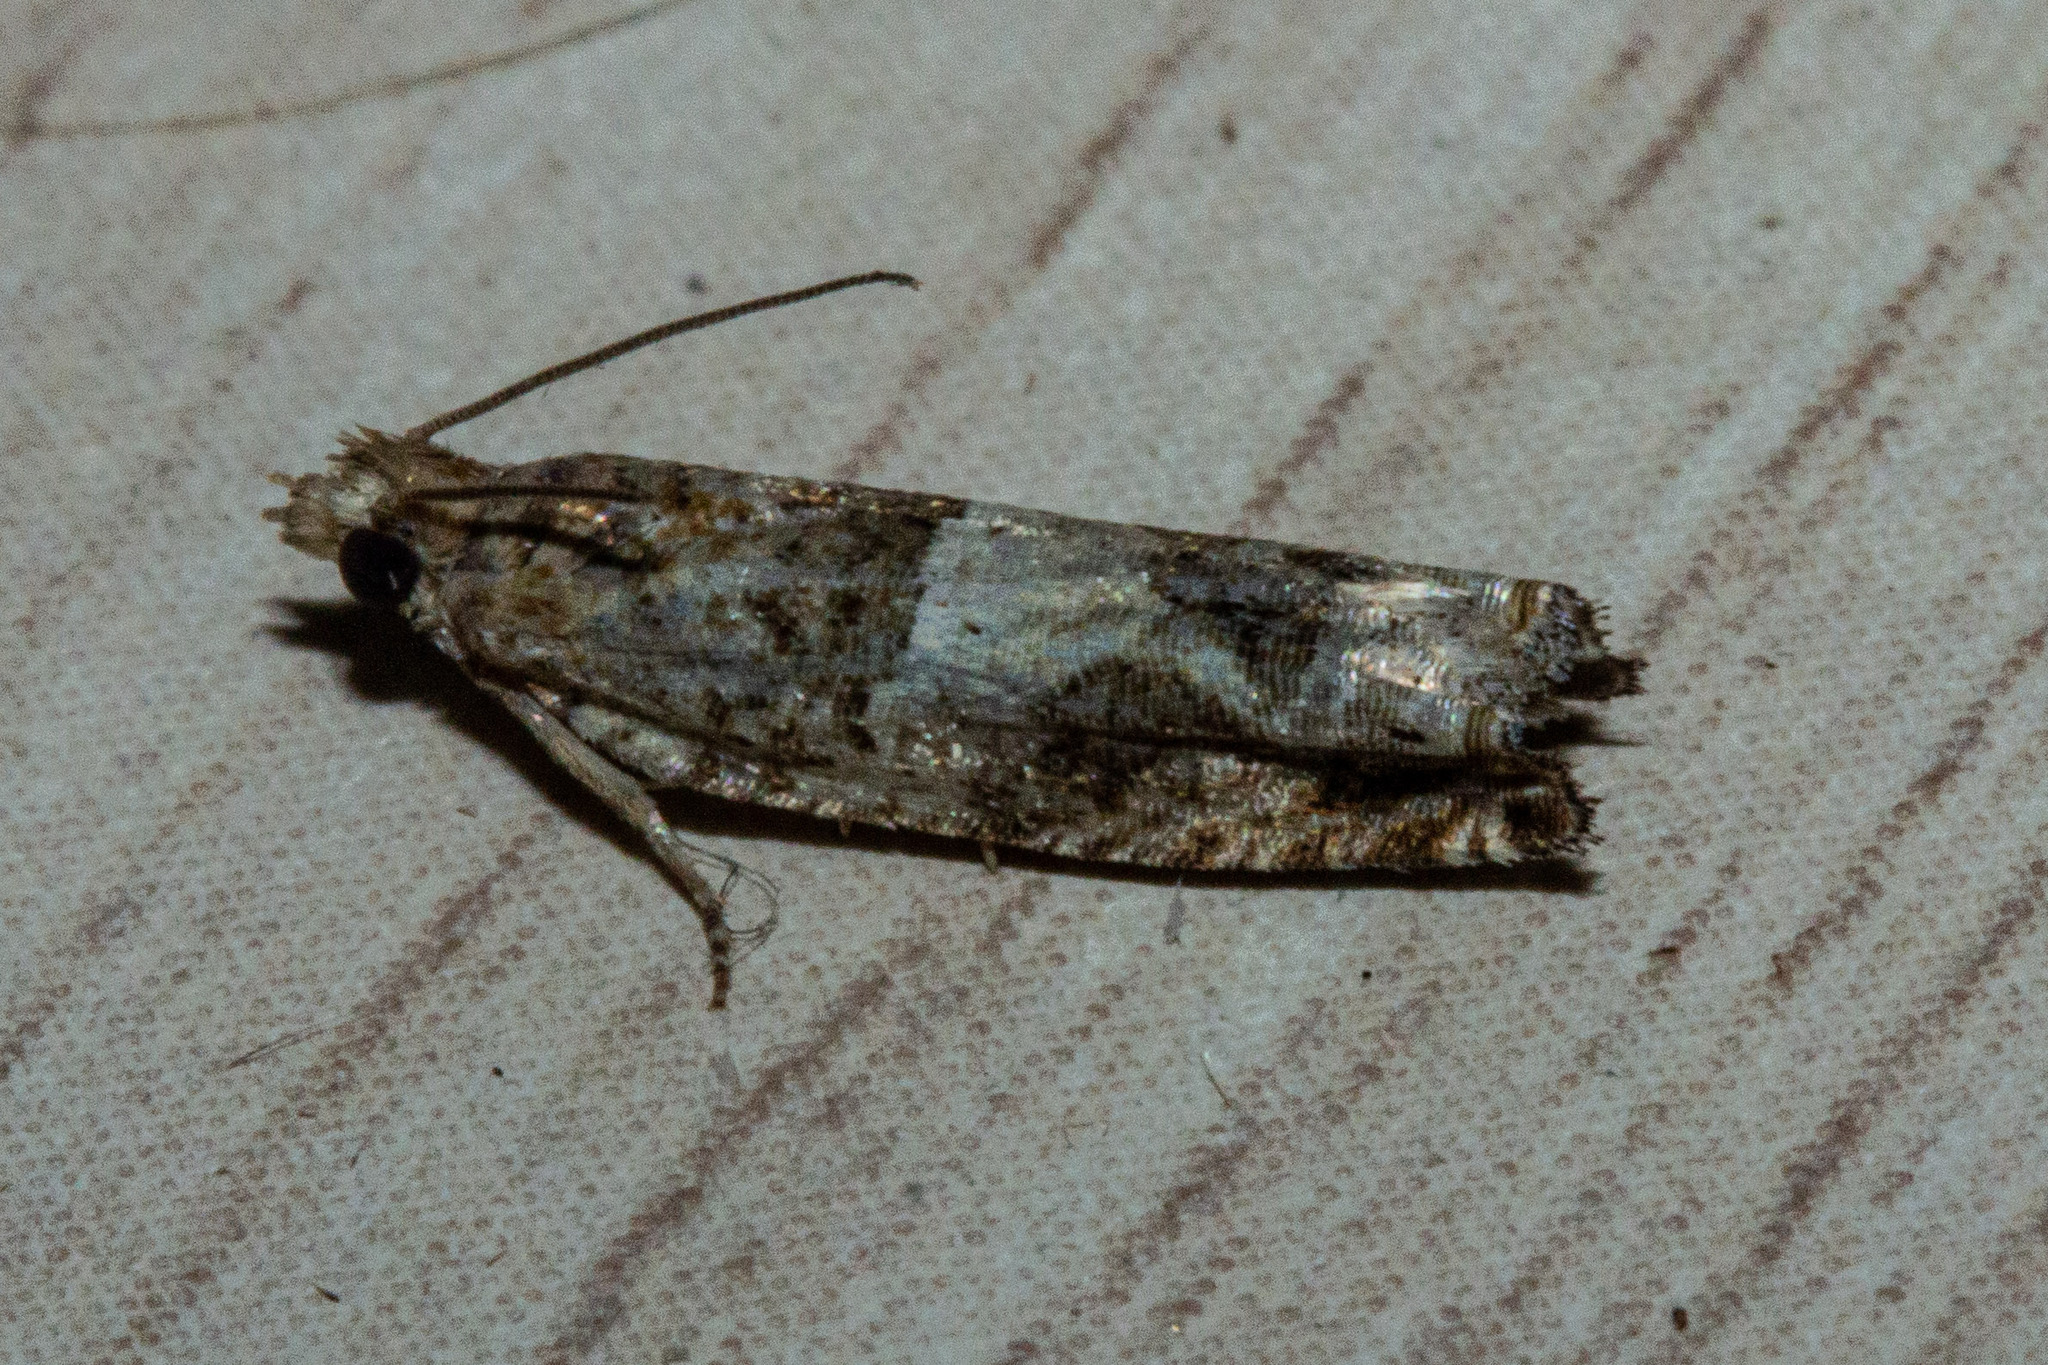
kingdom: Animalia
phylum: Arthropoda
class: Insecta
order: Lepidoptera
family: Tortricidae
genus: Crocidosema
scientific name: Crocidosema plebejana
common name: Southern bell
